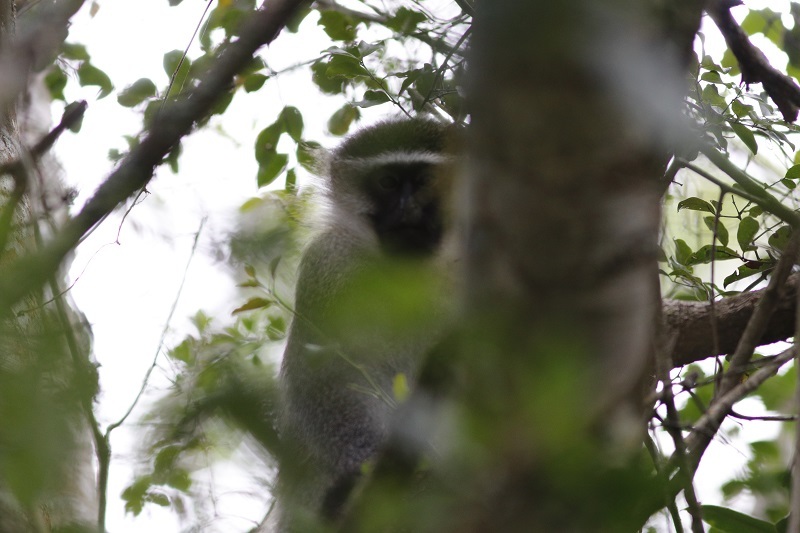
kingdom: Animalia
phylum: Chordata
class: Mammalia
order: Primates
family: Cercopithecidae
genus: Chlorocebus
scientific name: Chlorocebus pygerythrus
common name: Vervet monkey
